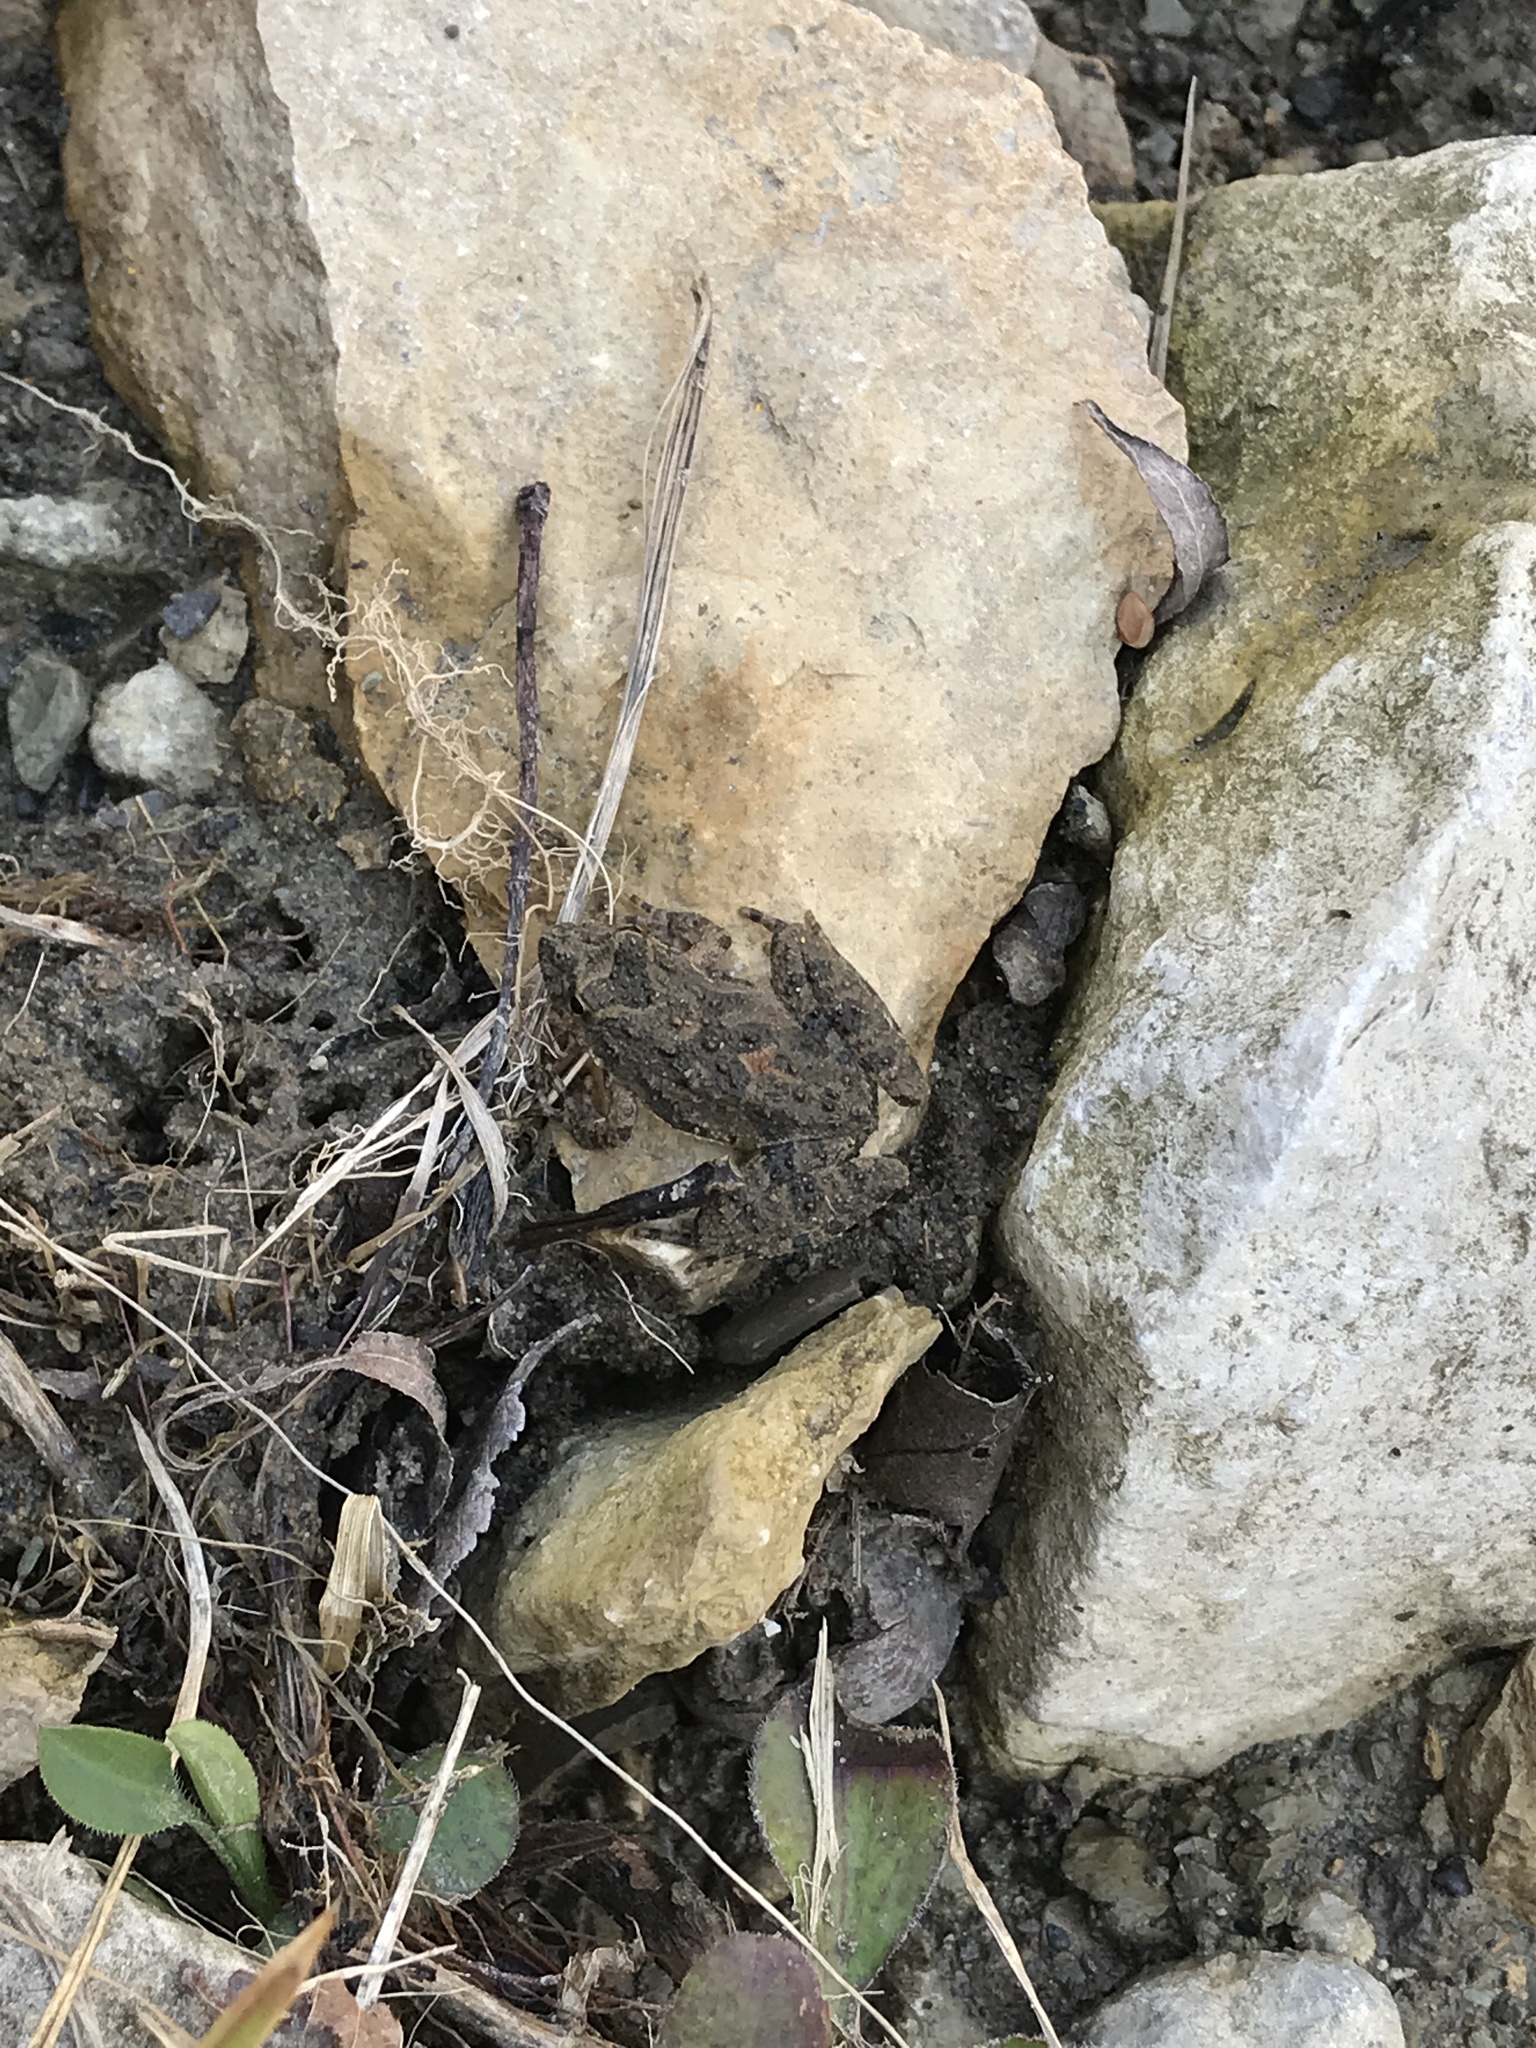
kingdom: Animalia
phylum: Chordata
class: Amphibia
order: Anura
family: Hylidae
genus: Acris
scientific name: Acris blanchardi
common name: Blanchard's cricket frog
